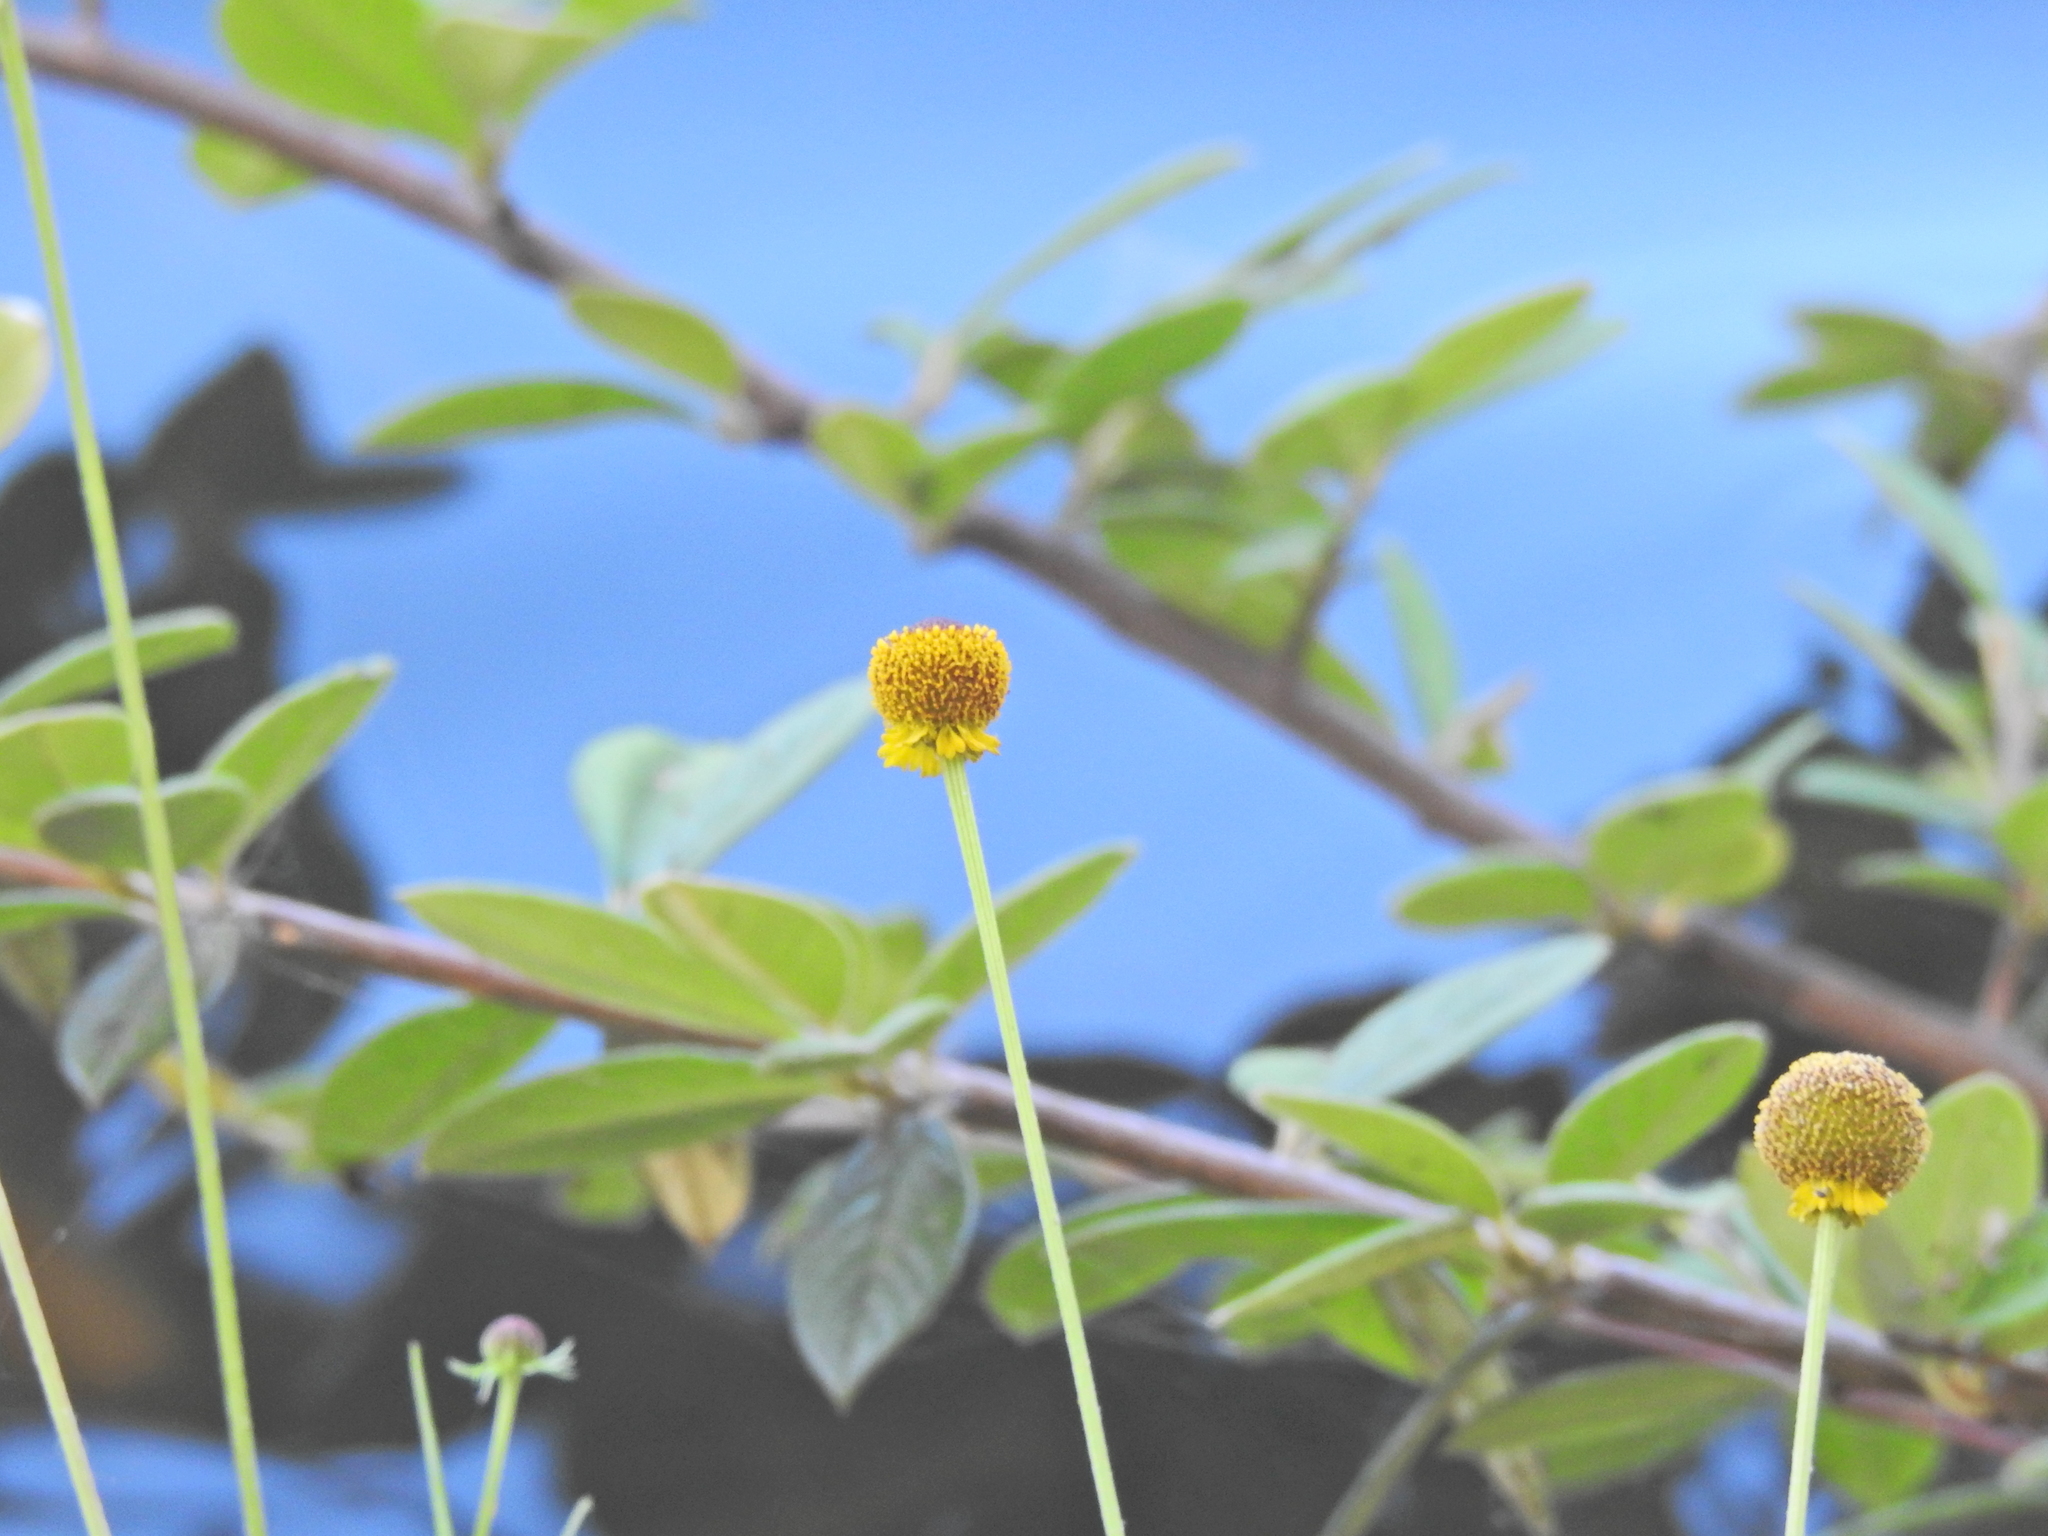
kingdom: Plantae
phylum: Tracheophyta
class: Magnoliopsida
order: Asterales
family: Asteraceae
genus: Helenium
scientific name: Helenium puberulum
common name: Sneezewort
